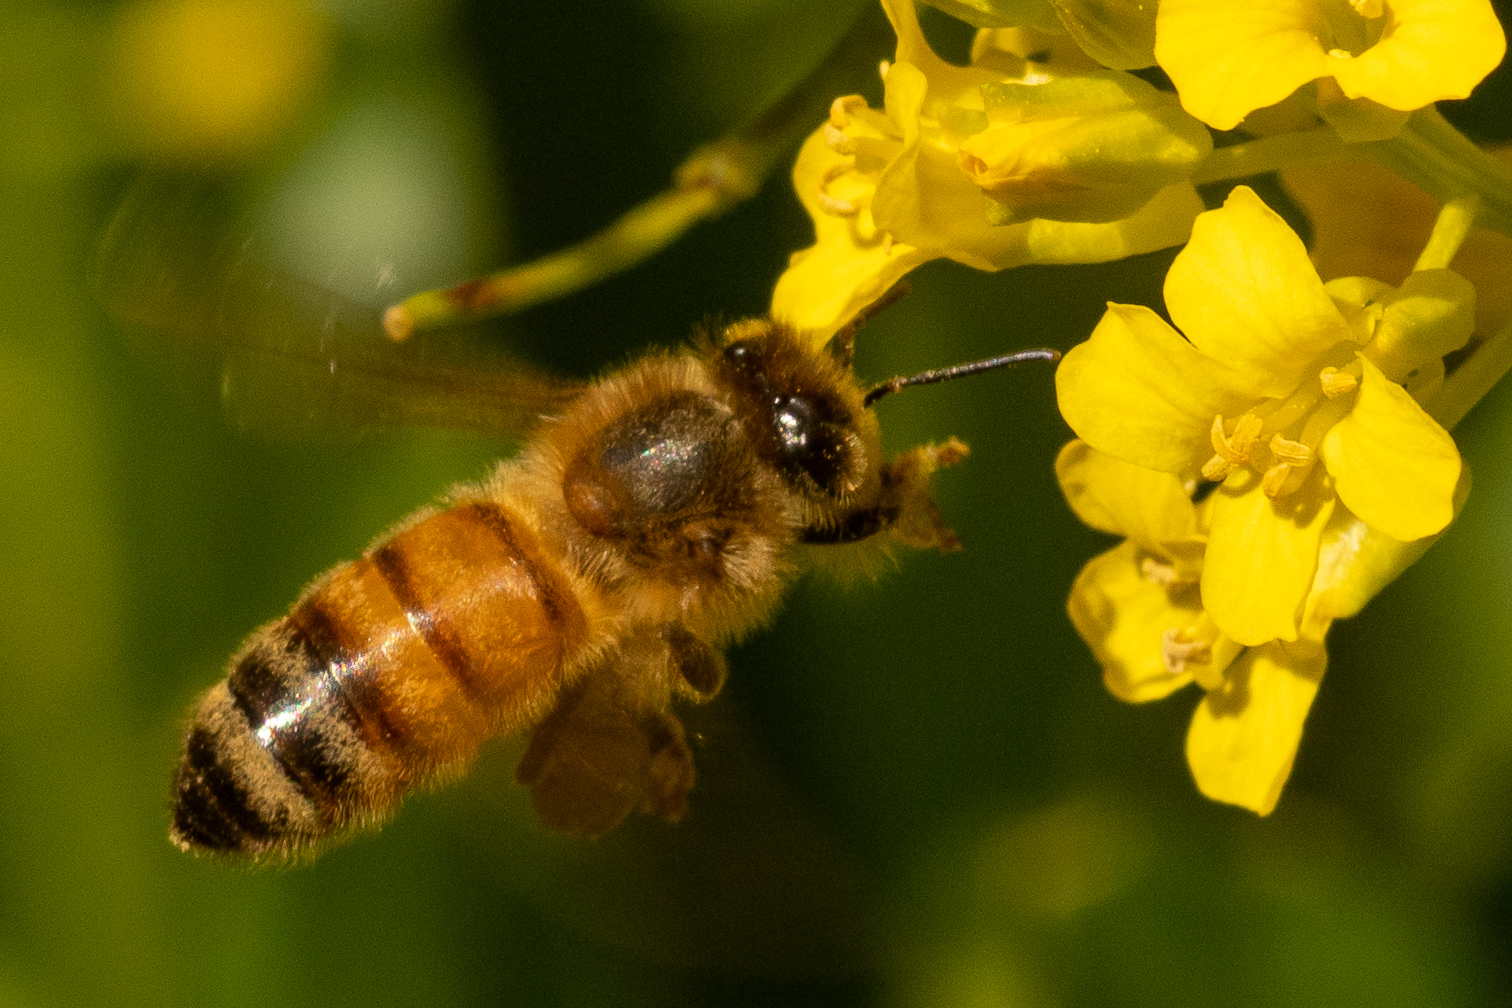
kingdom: Animalia
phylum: Arthropoda
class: Insecta
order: Hymenoptera
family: Apidae
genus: Apis
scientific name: Apis mellifera
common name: Honey bee
